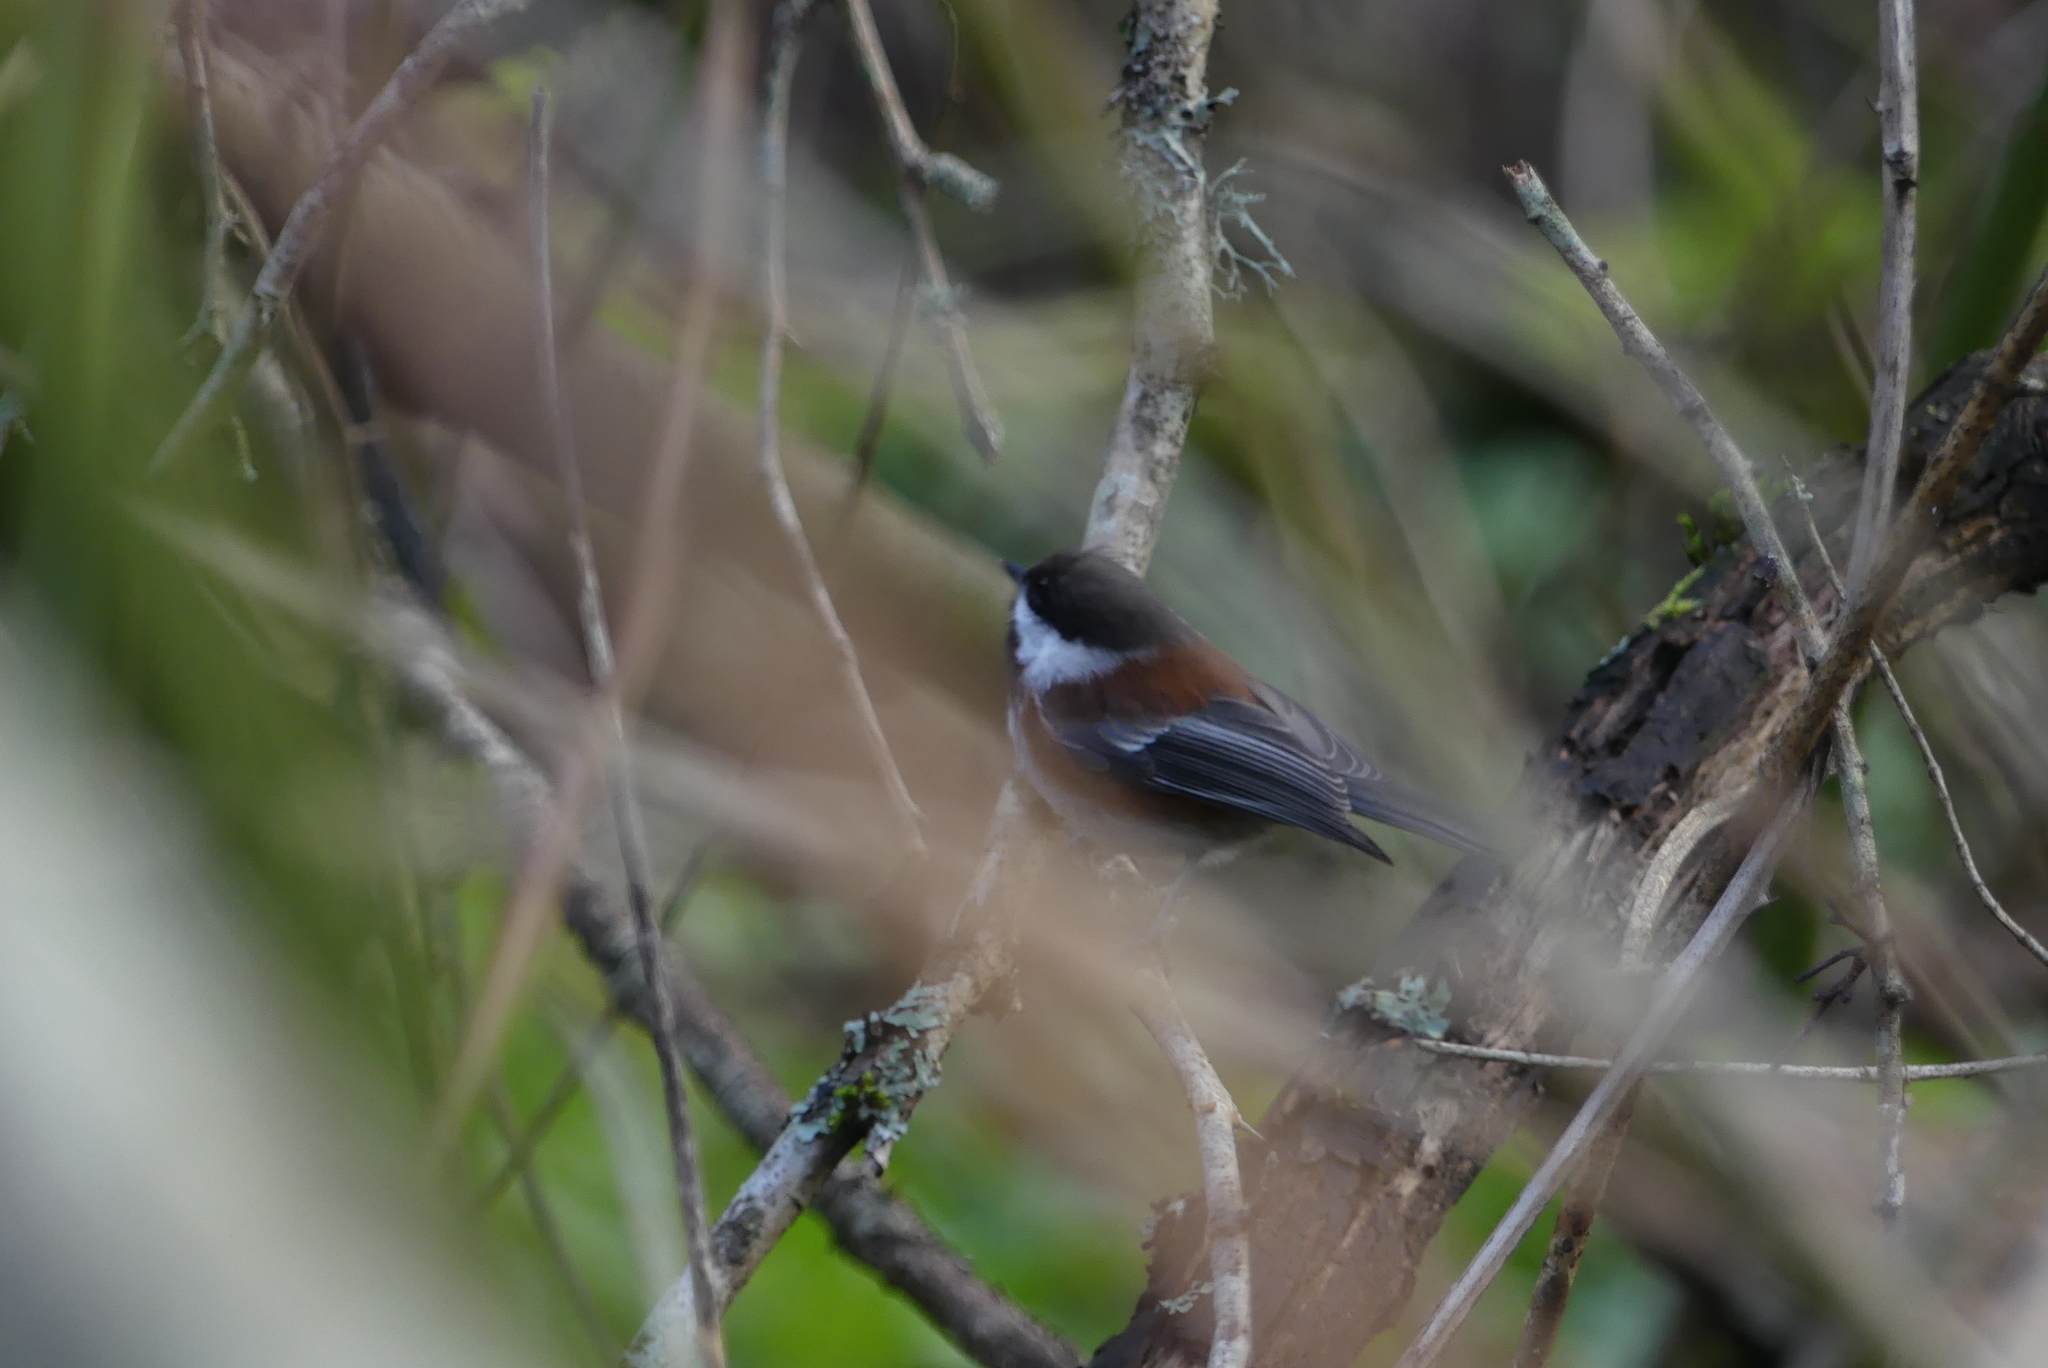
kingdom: Animalia
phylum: Chordata
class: Aves
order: Passeriformes
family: Paridae
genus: Poecile
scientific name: Poecile rufescens
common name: Chestnut-backed chickadee
